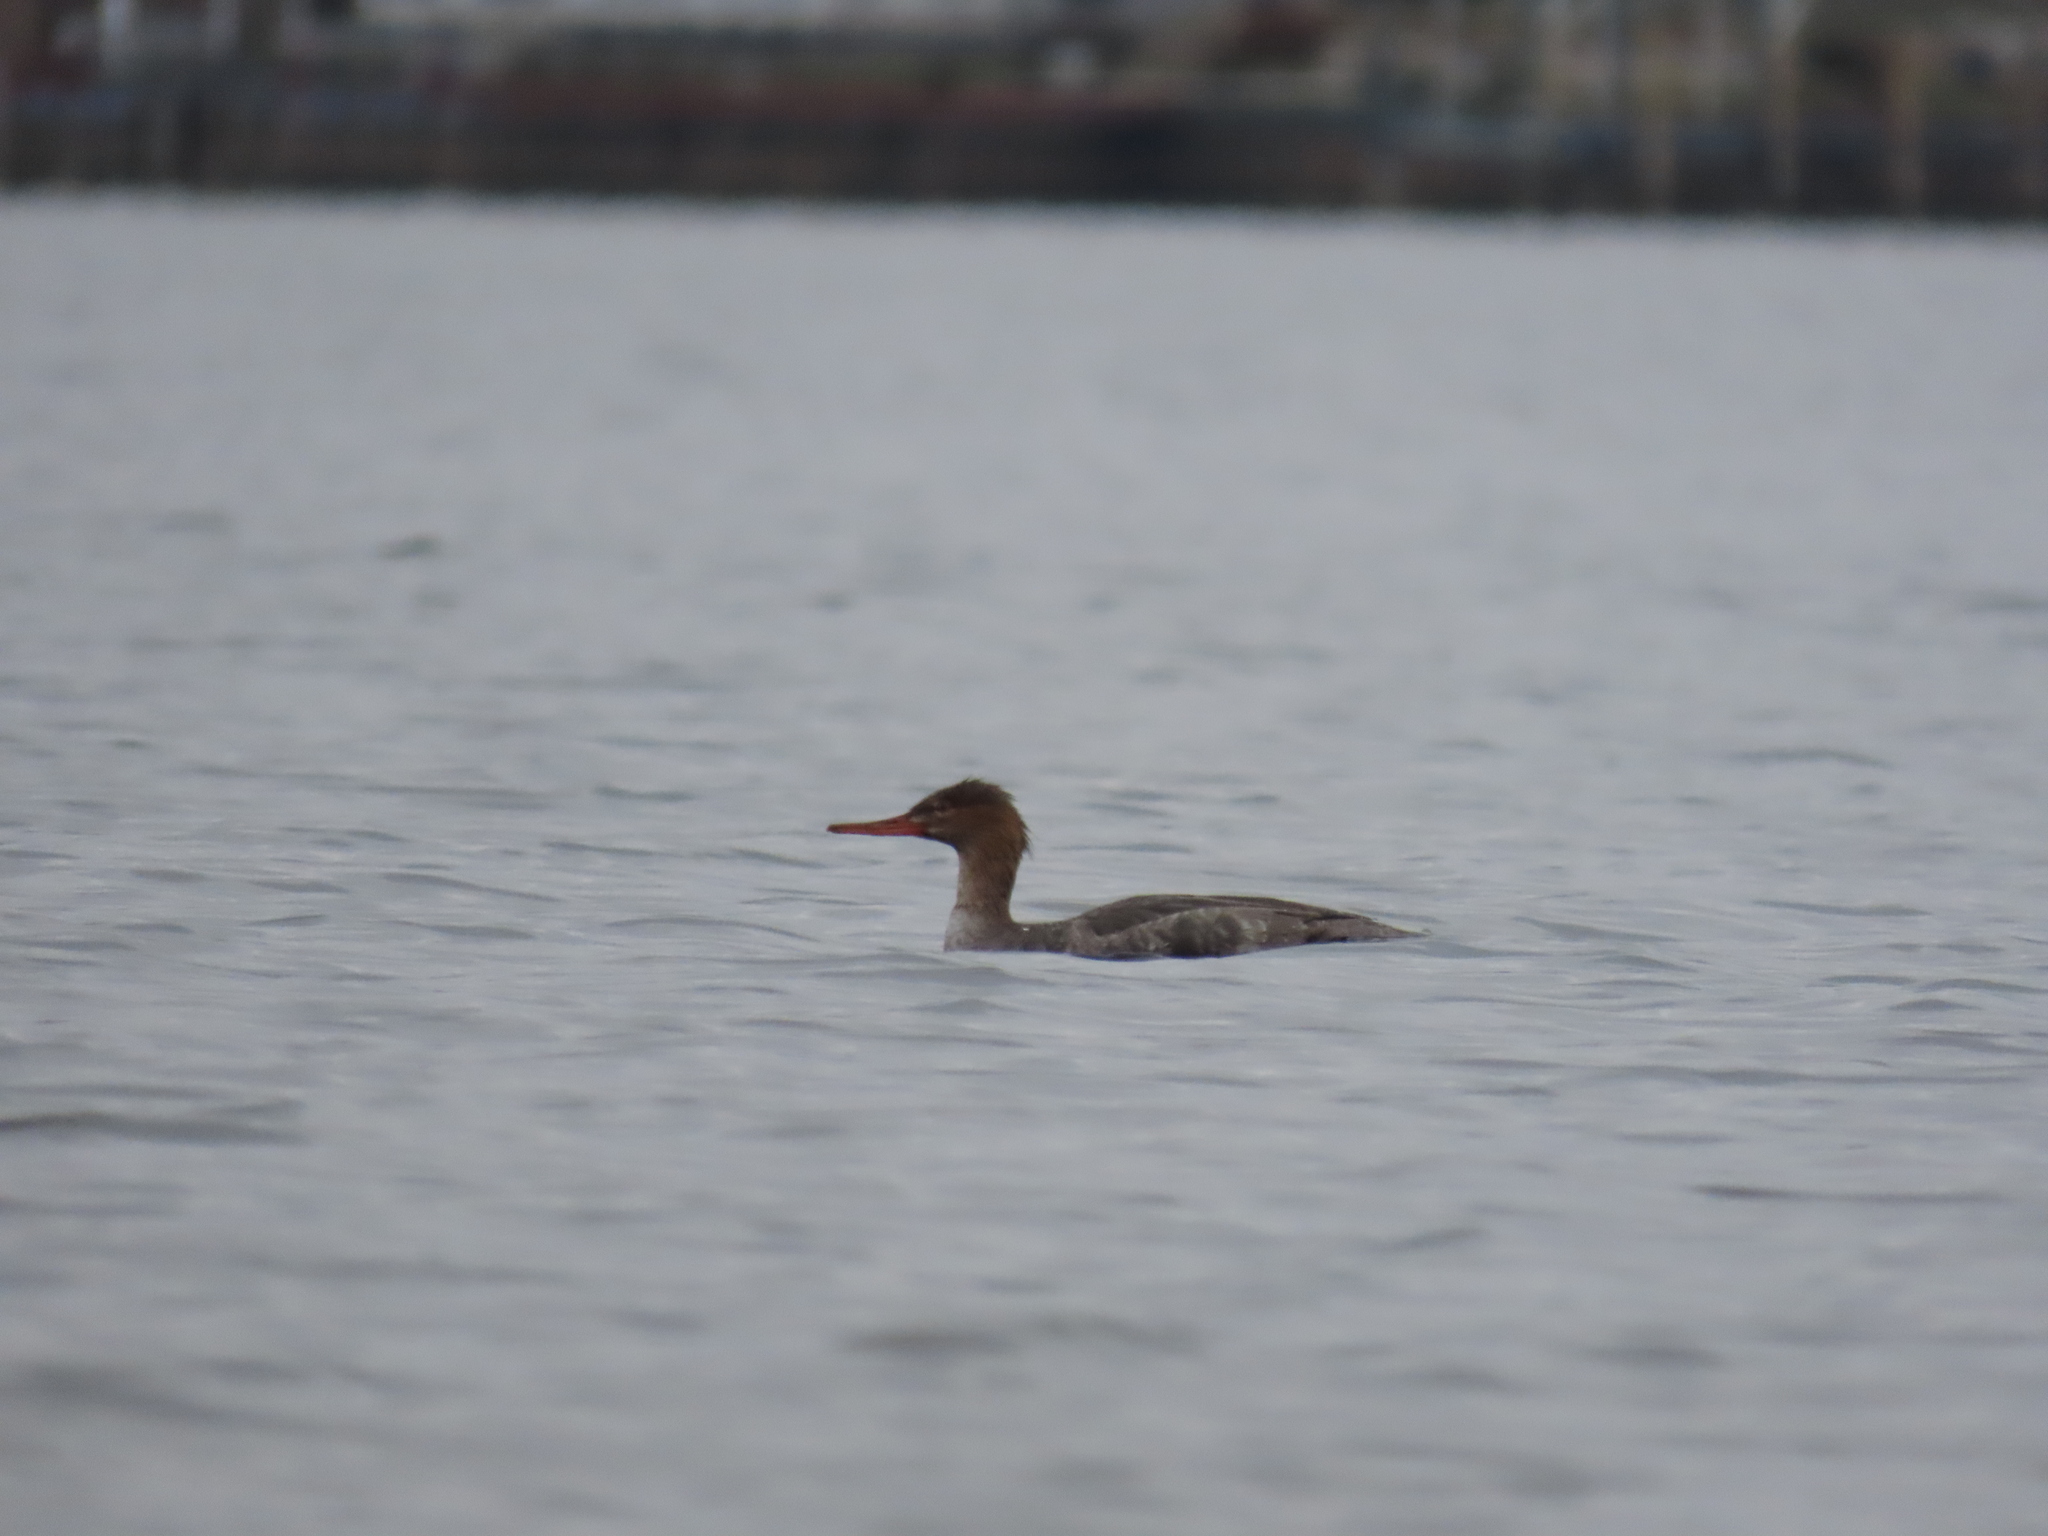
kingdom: Animalia
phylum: Chordata
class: Aves
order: Anseriformes
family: Anatidae
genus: Mergus
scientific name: Mergus serrator
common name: Red-breasted merganser
